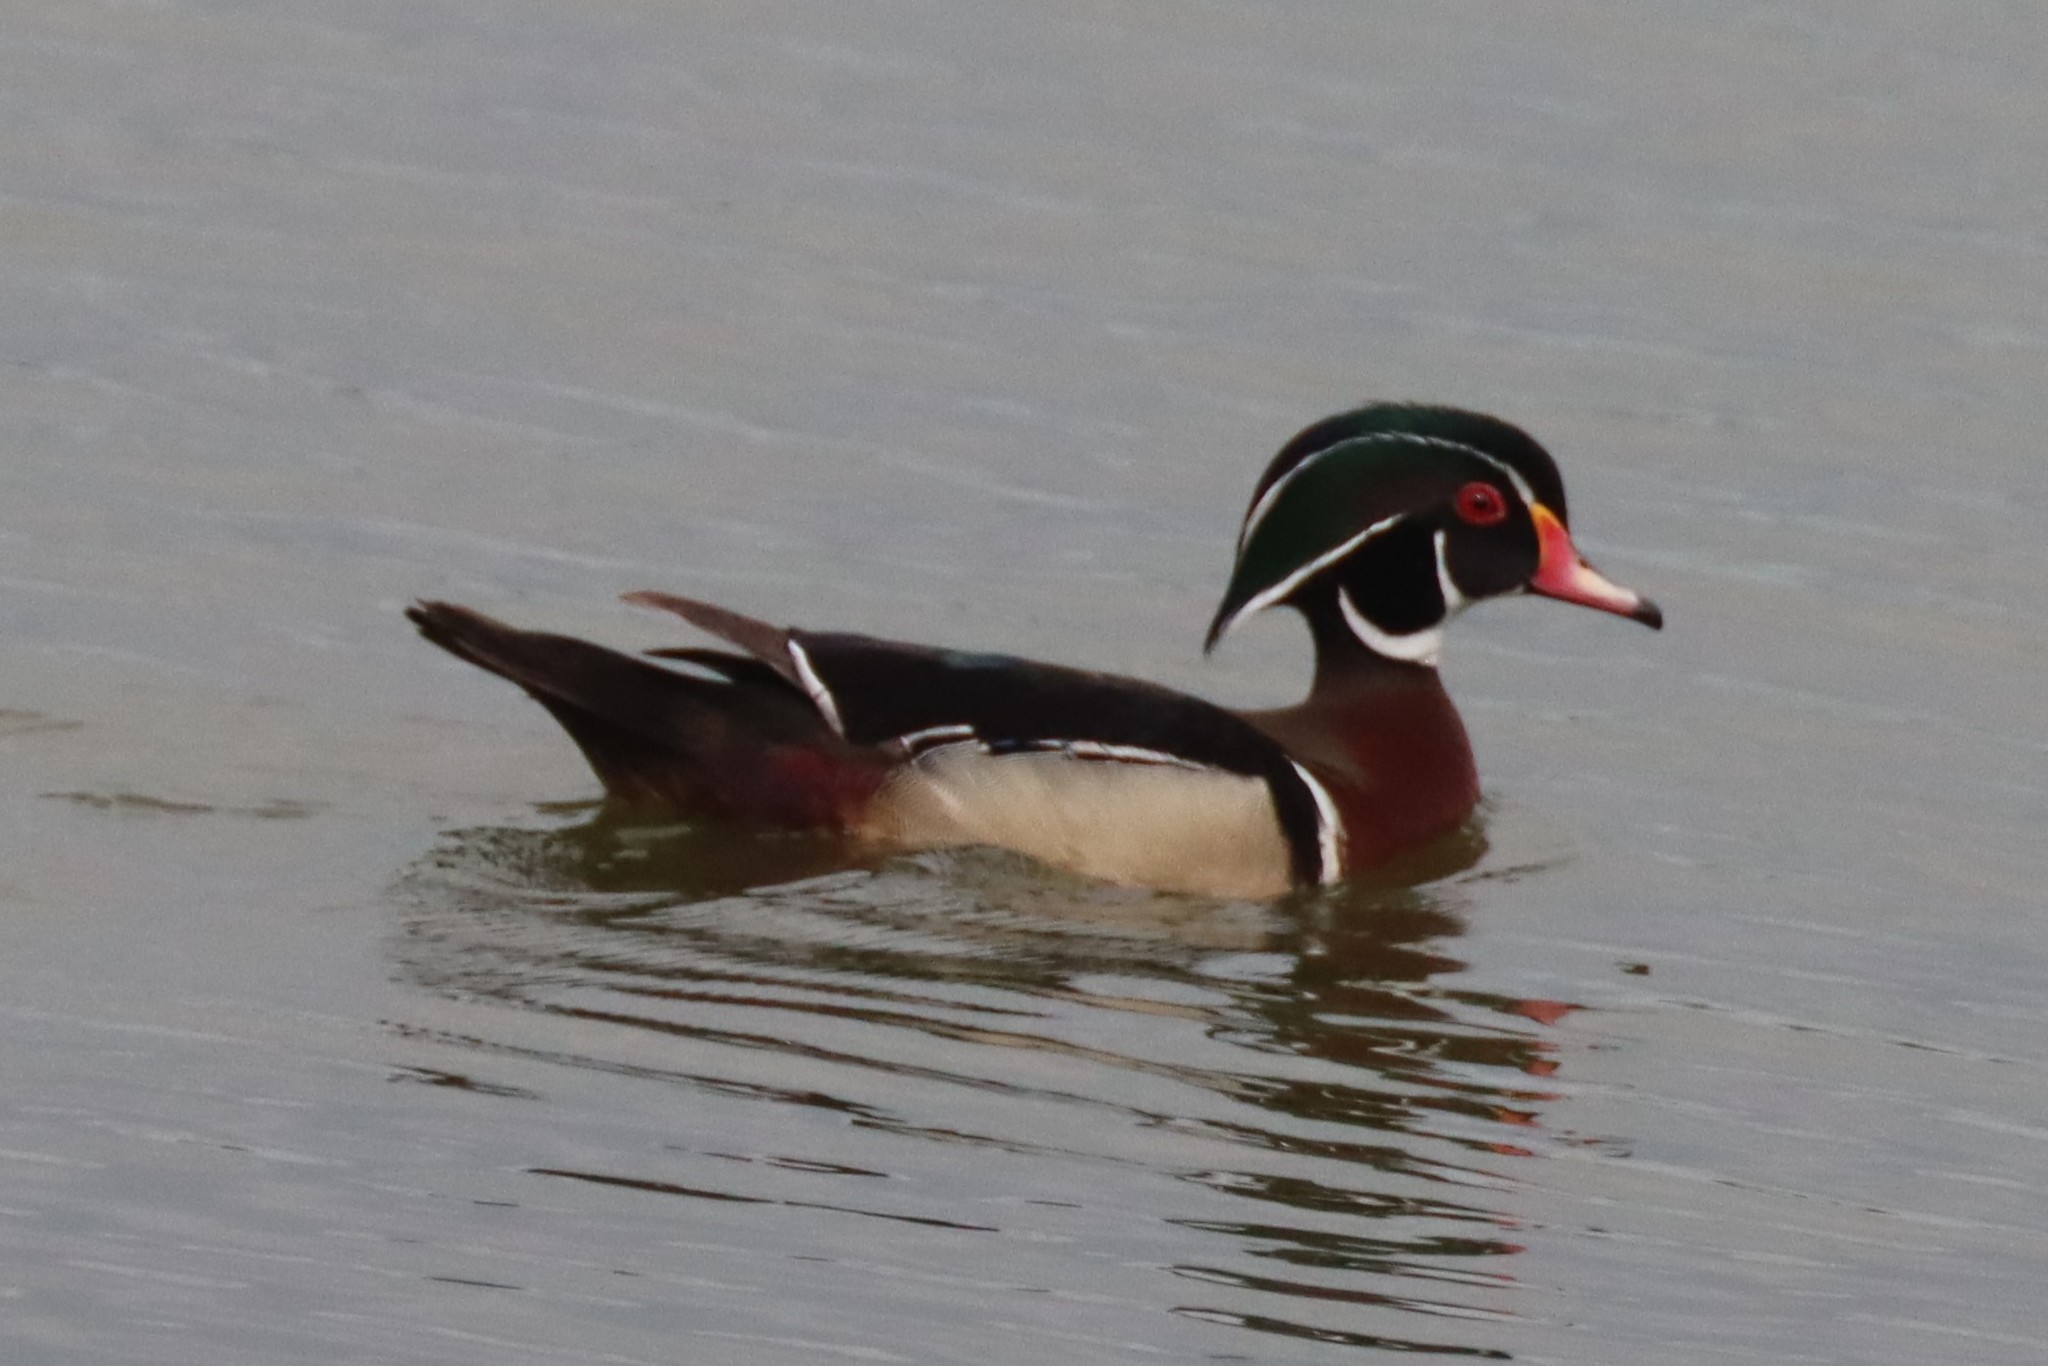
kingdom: Animalia
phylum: Chordata
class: Aves
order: Anseriformes
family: Anatidae
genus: Aix
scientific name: Aix sponsa
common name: Wood duck
